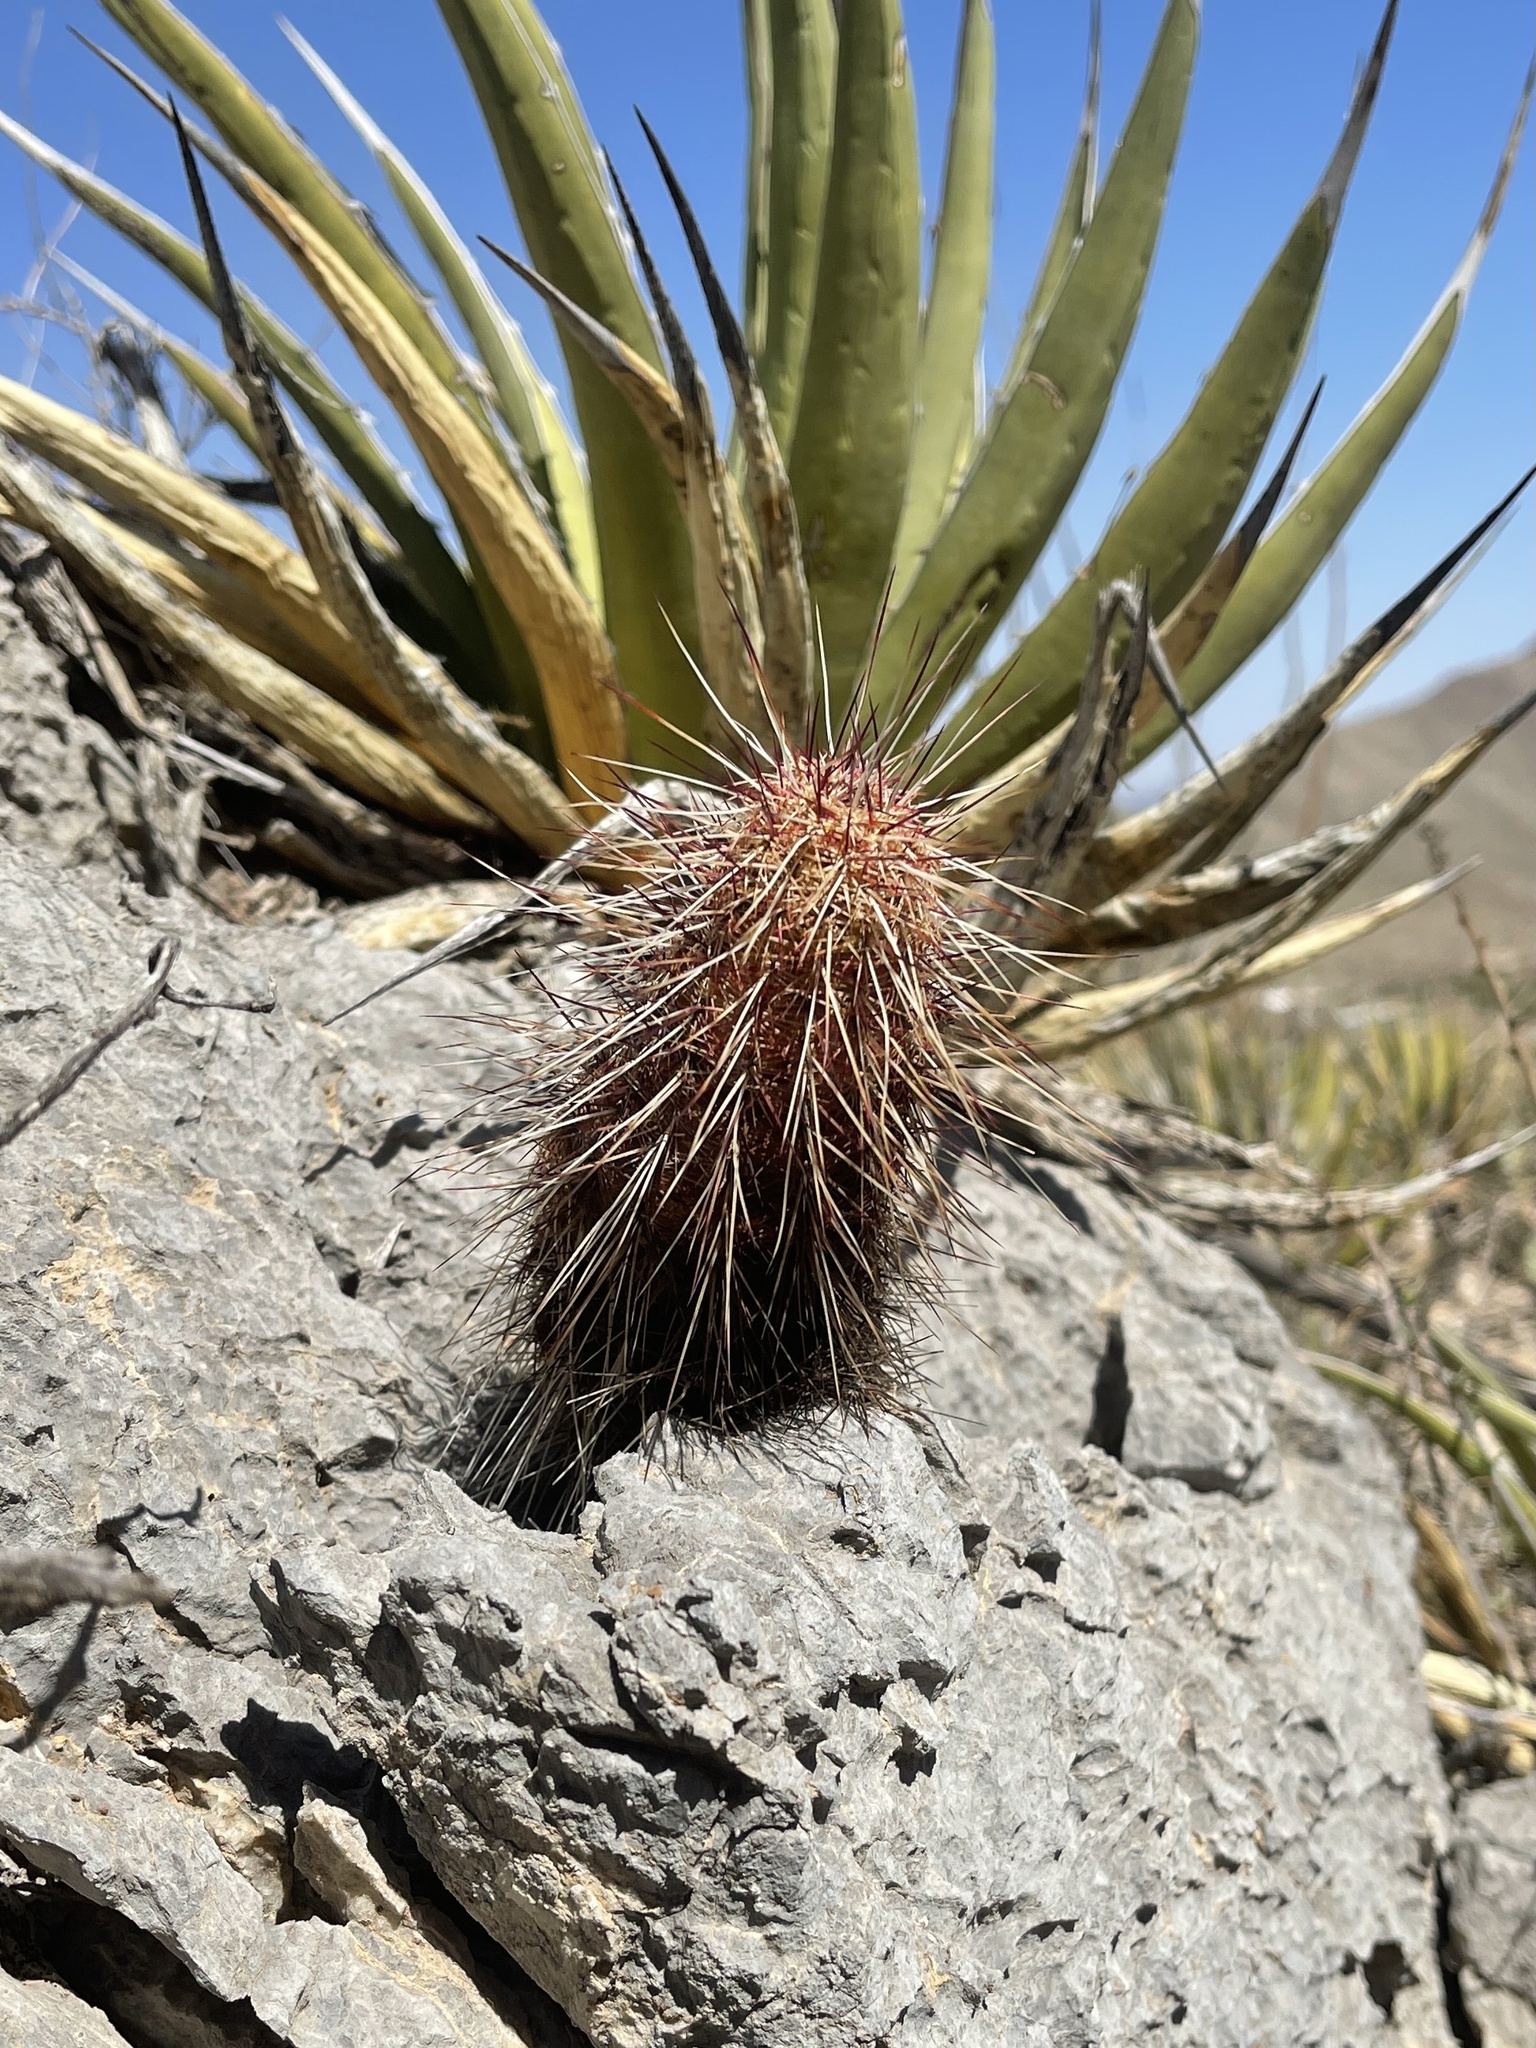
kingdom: Plantae
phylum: Tracheophyta
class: Magnoliopsida
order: Caryophyllales
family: Cactaceae
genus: Echinocereus
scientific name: Echinocereus viridiflorus
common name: Nylon hedgehog cactus
